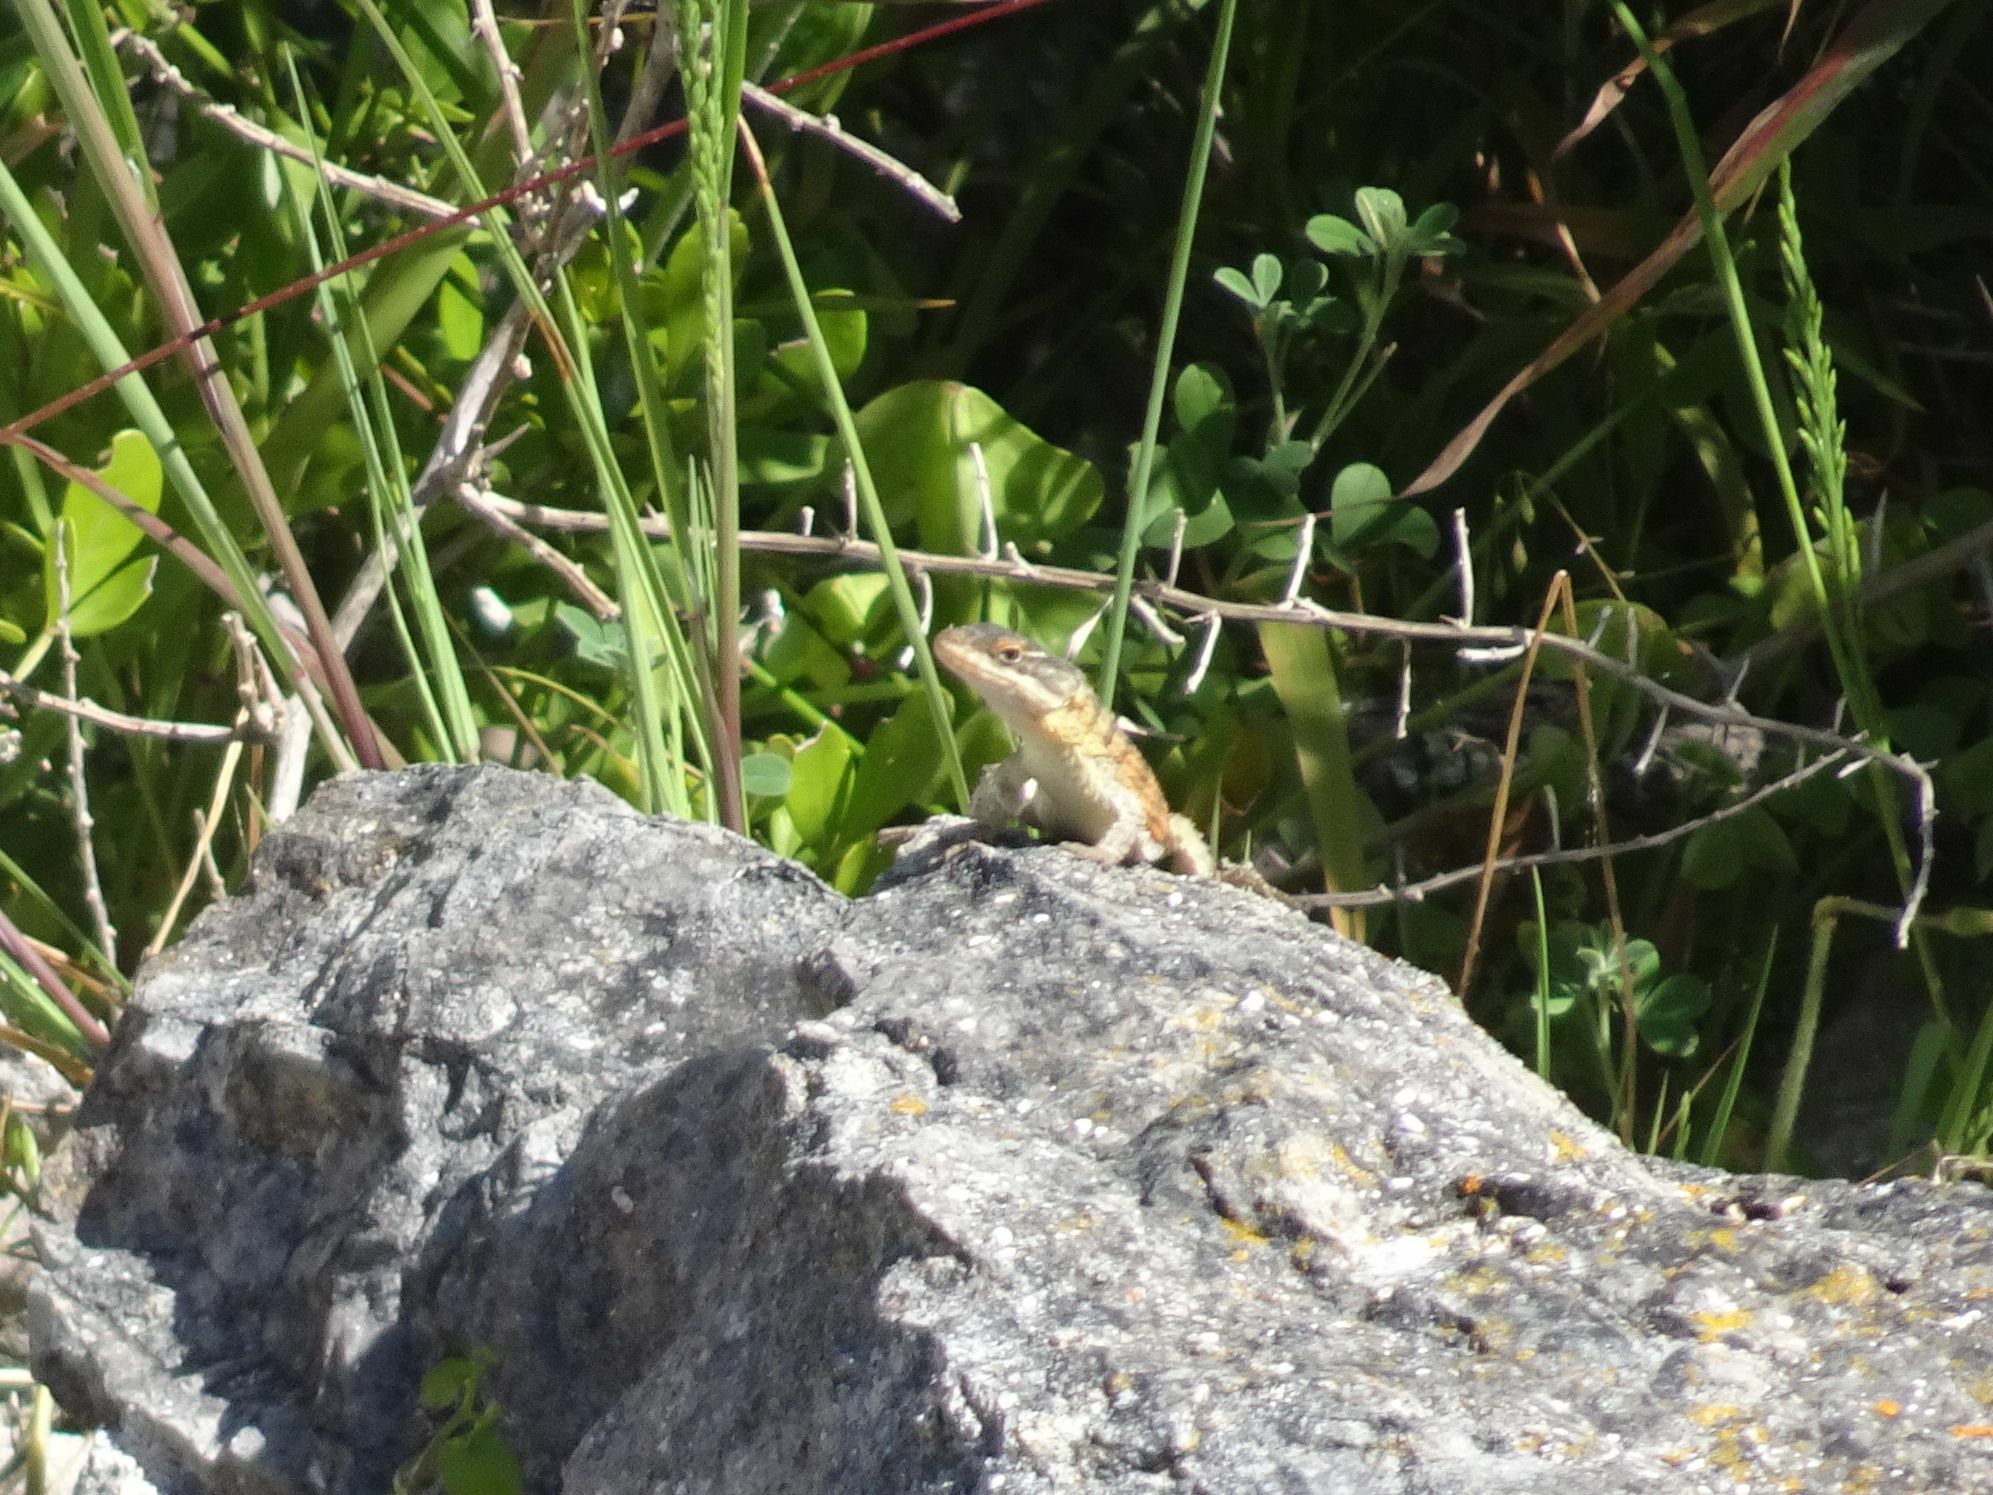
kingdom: Animalia
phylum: Chordata
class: Squamata
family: Cordylidae
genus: Cordylus
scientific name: Cordylus cordylus
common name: Cape girdled lizard
